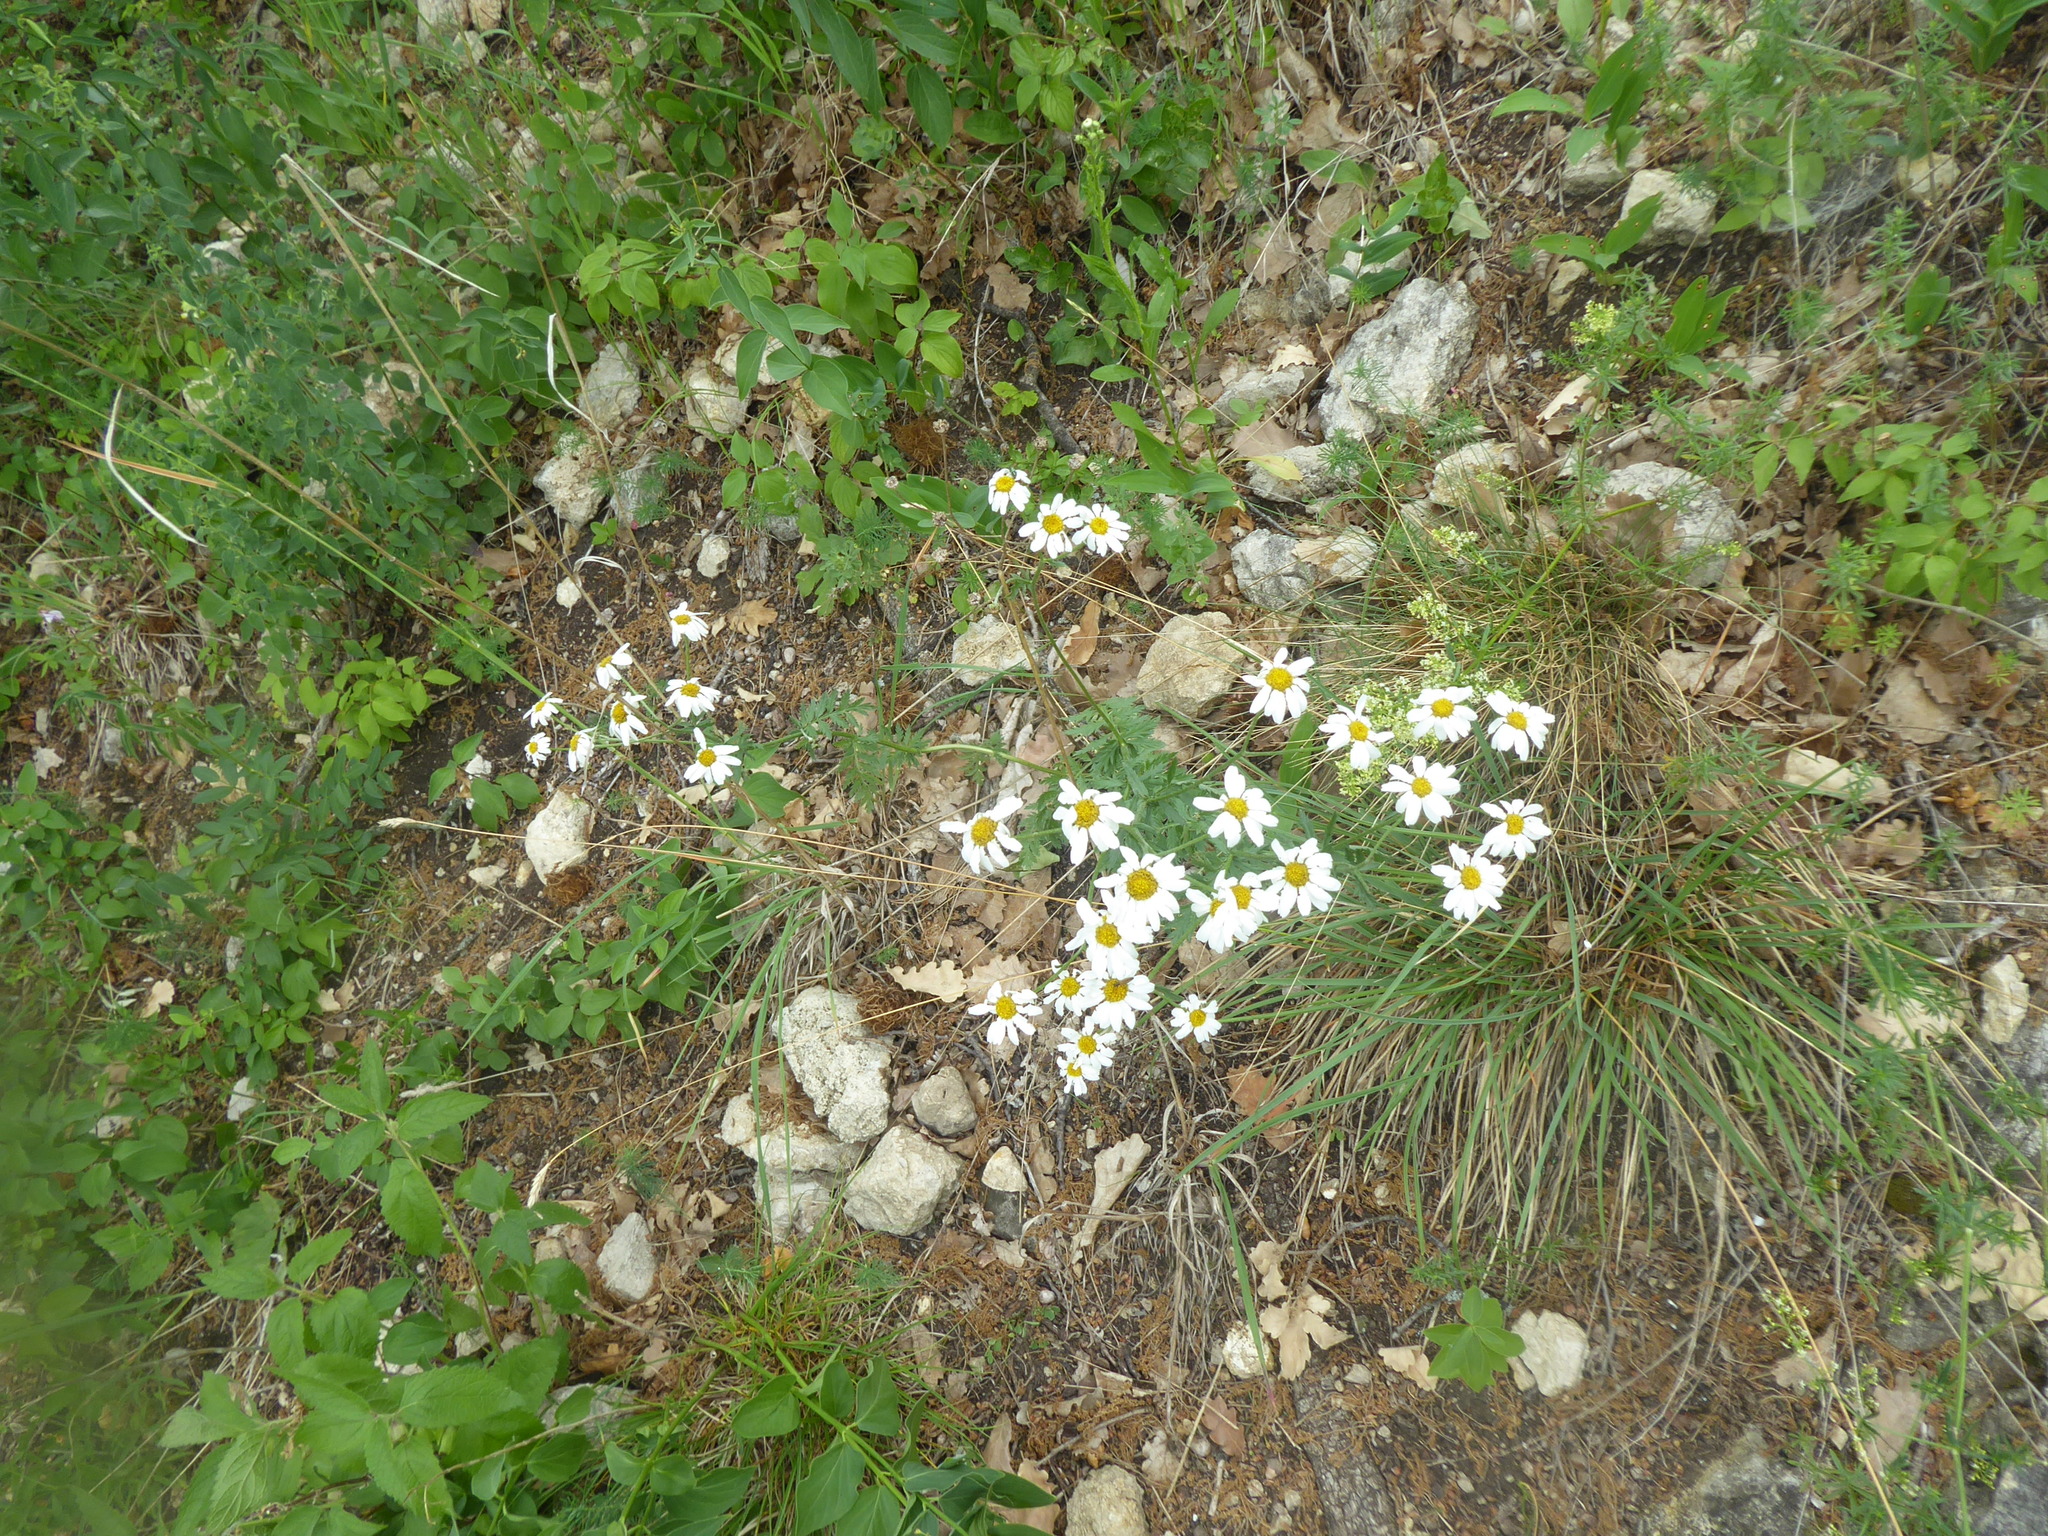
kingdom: Plantae
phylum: Tracheophyta
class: Magnoliopsida
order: Asterales
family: Asteraceae
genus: Tanacetum
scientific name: Tanacetum corymbosum
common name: Scentless feverfew
